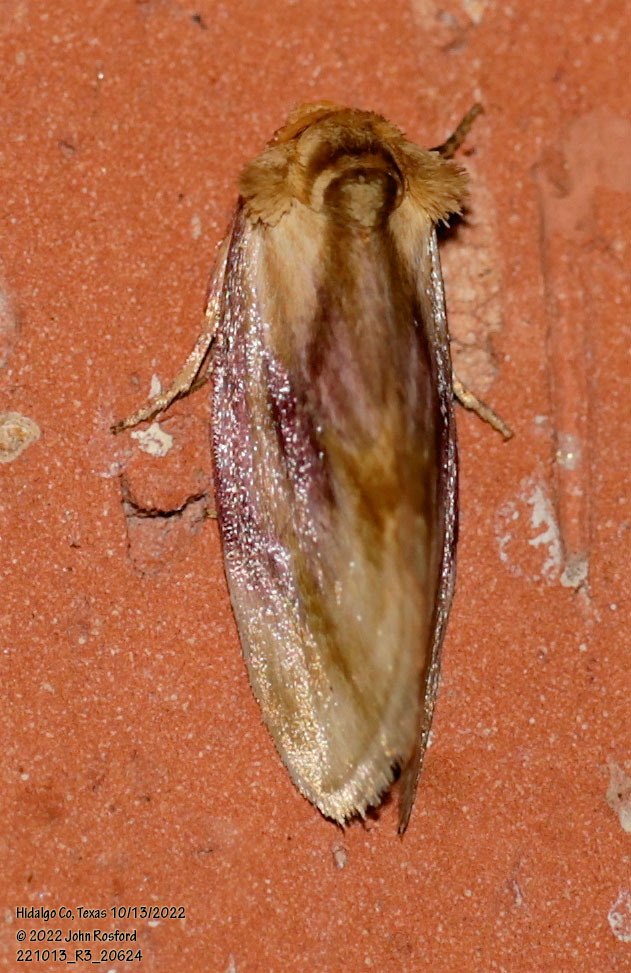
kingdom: Animalia
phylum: Arthropoda
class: Insecta
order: Lepidoptera
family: Noctuidae
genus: Chamaeclea
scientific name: Chamaeclea basiochrea
